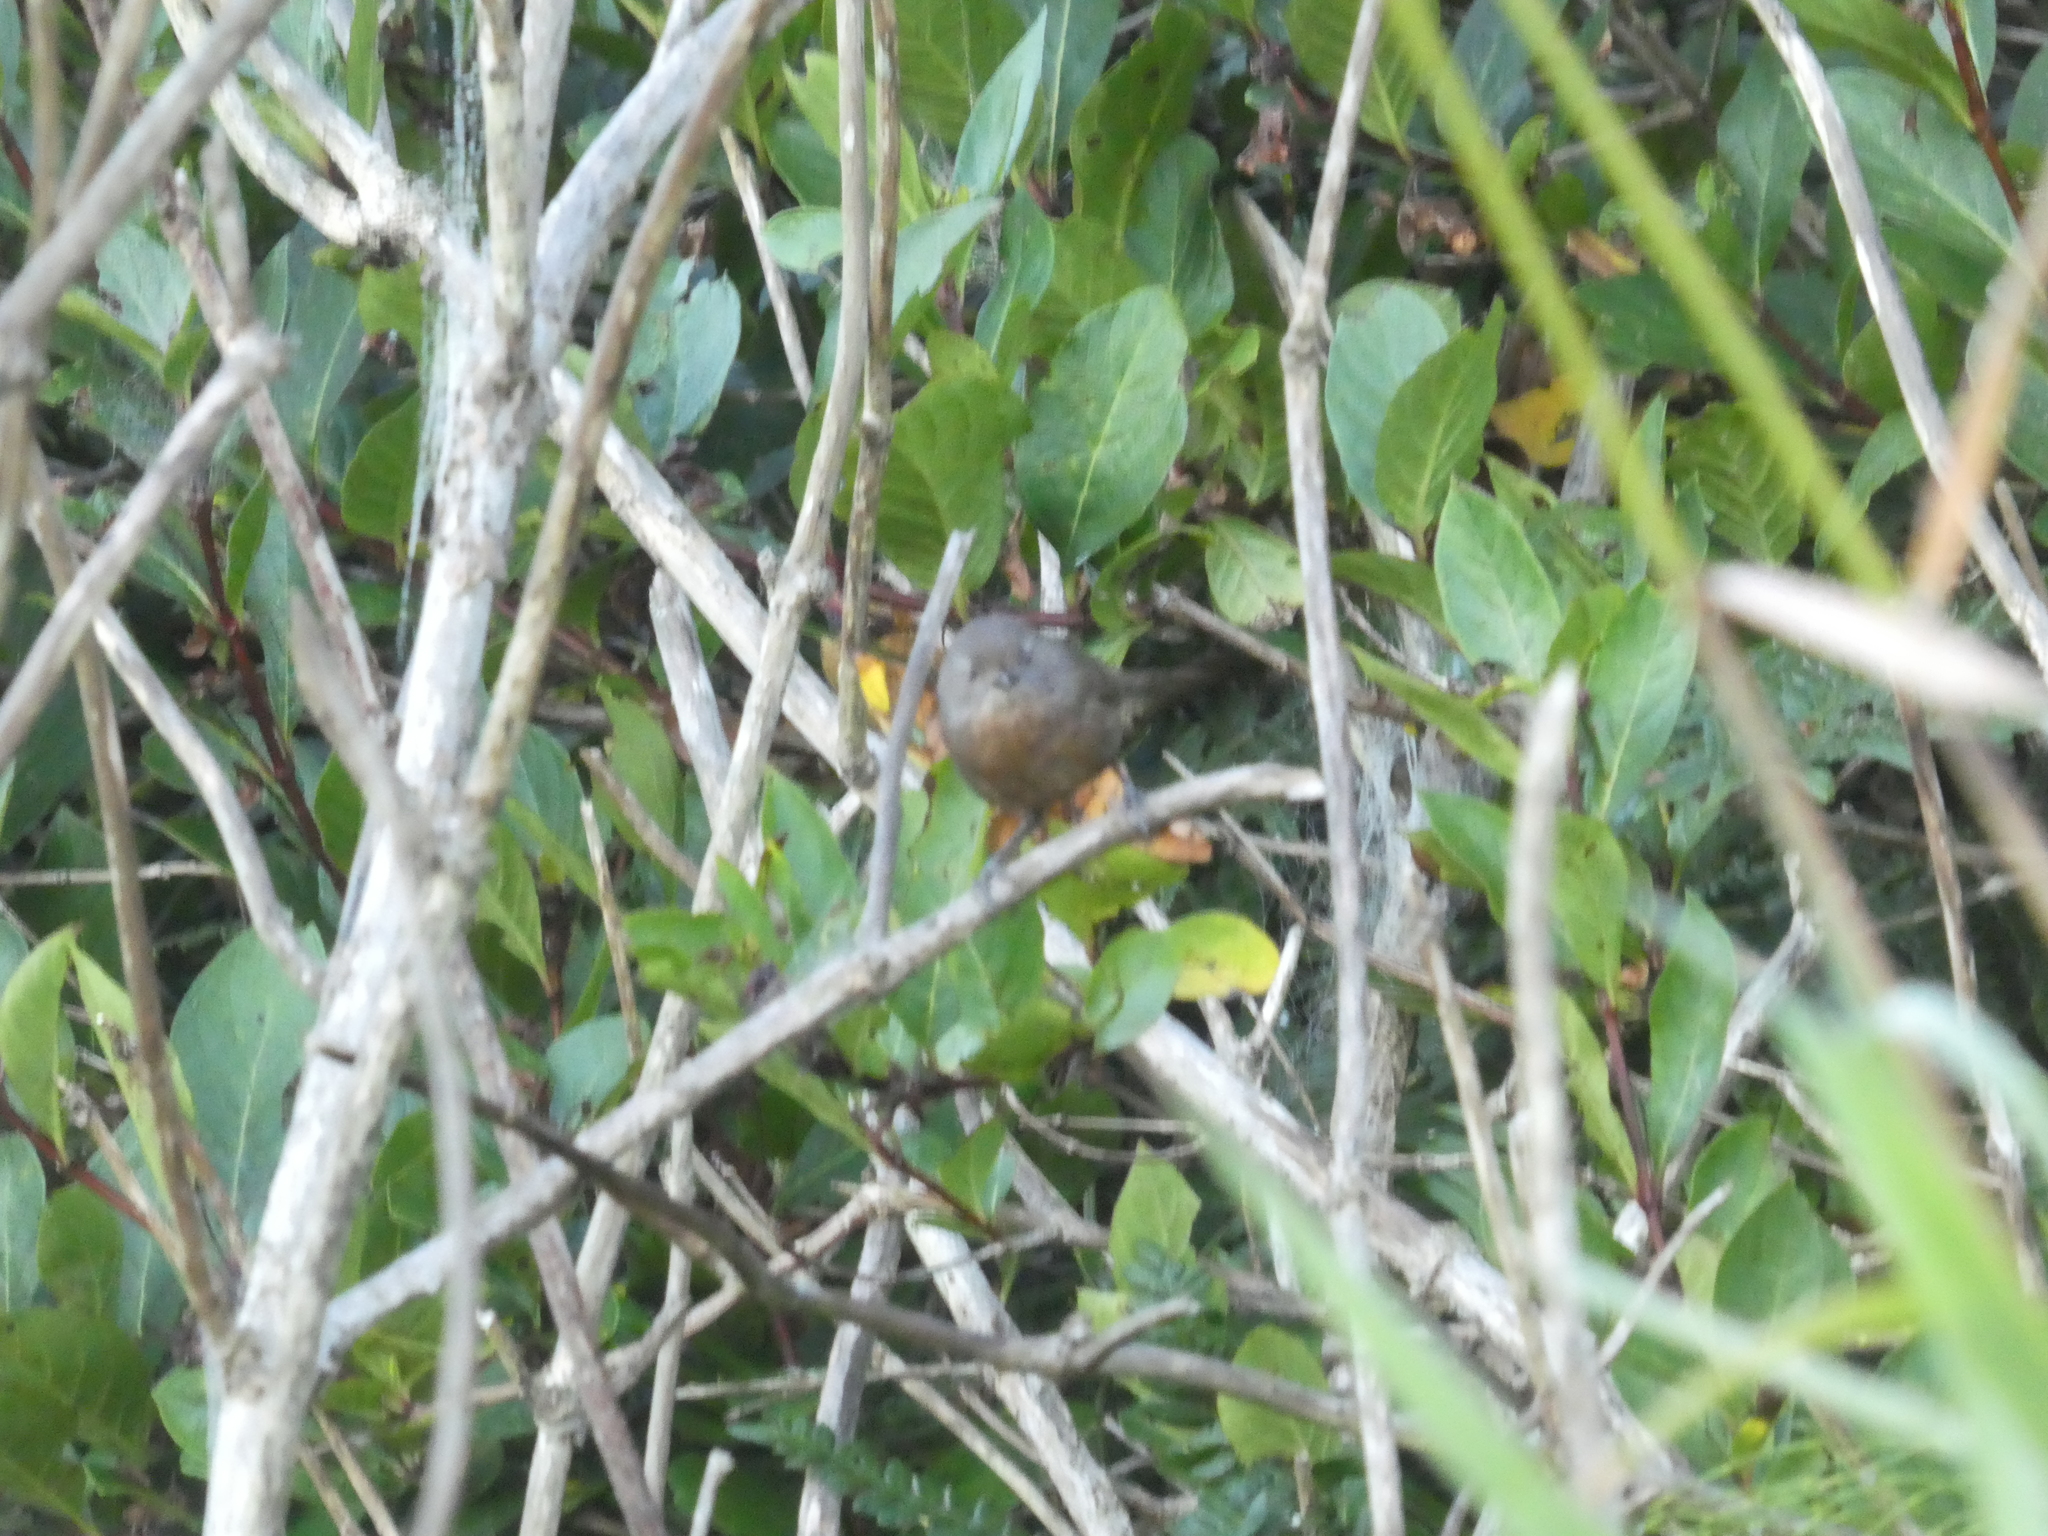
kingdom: Animalia
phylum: Chordata
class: Aves
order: Passeriformes
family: Sylviidae
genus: Chamaea
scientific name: Chamaea fasciata
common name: Wrentit
